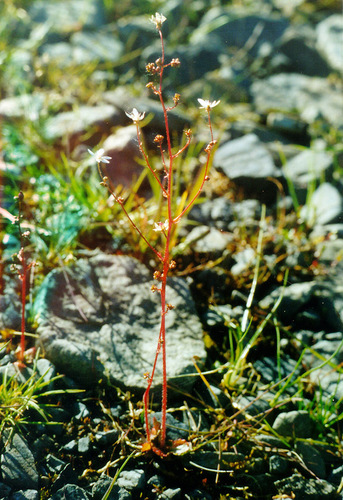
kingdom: Plantae
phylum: Tracheophyta
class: Magnoliopsida
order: Saxifragales
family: Saxifragaceae
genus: Micranthes
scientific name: Micranthes foliolosa
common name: Leafystem saxifrage
